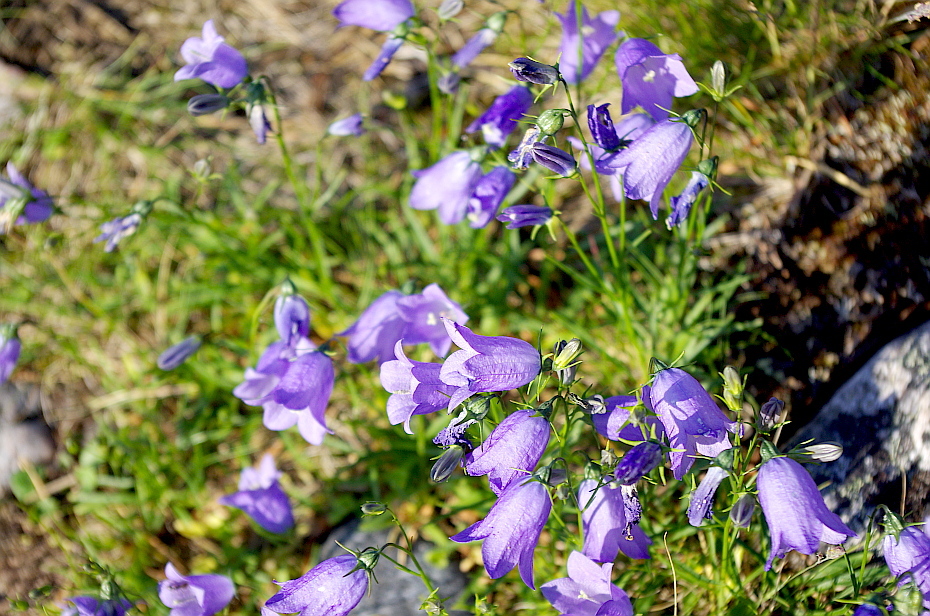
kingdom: Plantae
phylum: Tracheophyta
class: Magnoliopsida
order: Asterales
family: Campanulaceae
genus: Campanula
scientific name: Campanula rotundifolia
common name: Harebell
